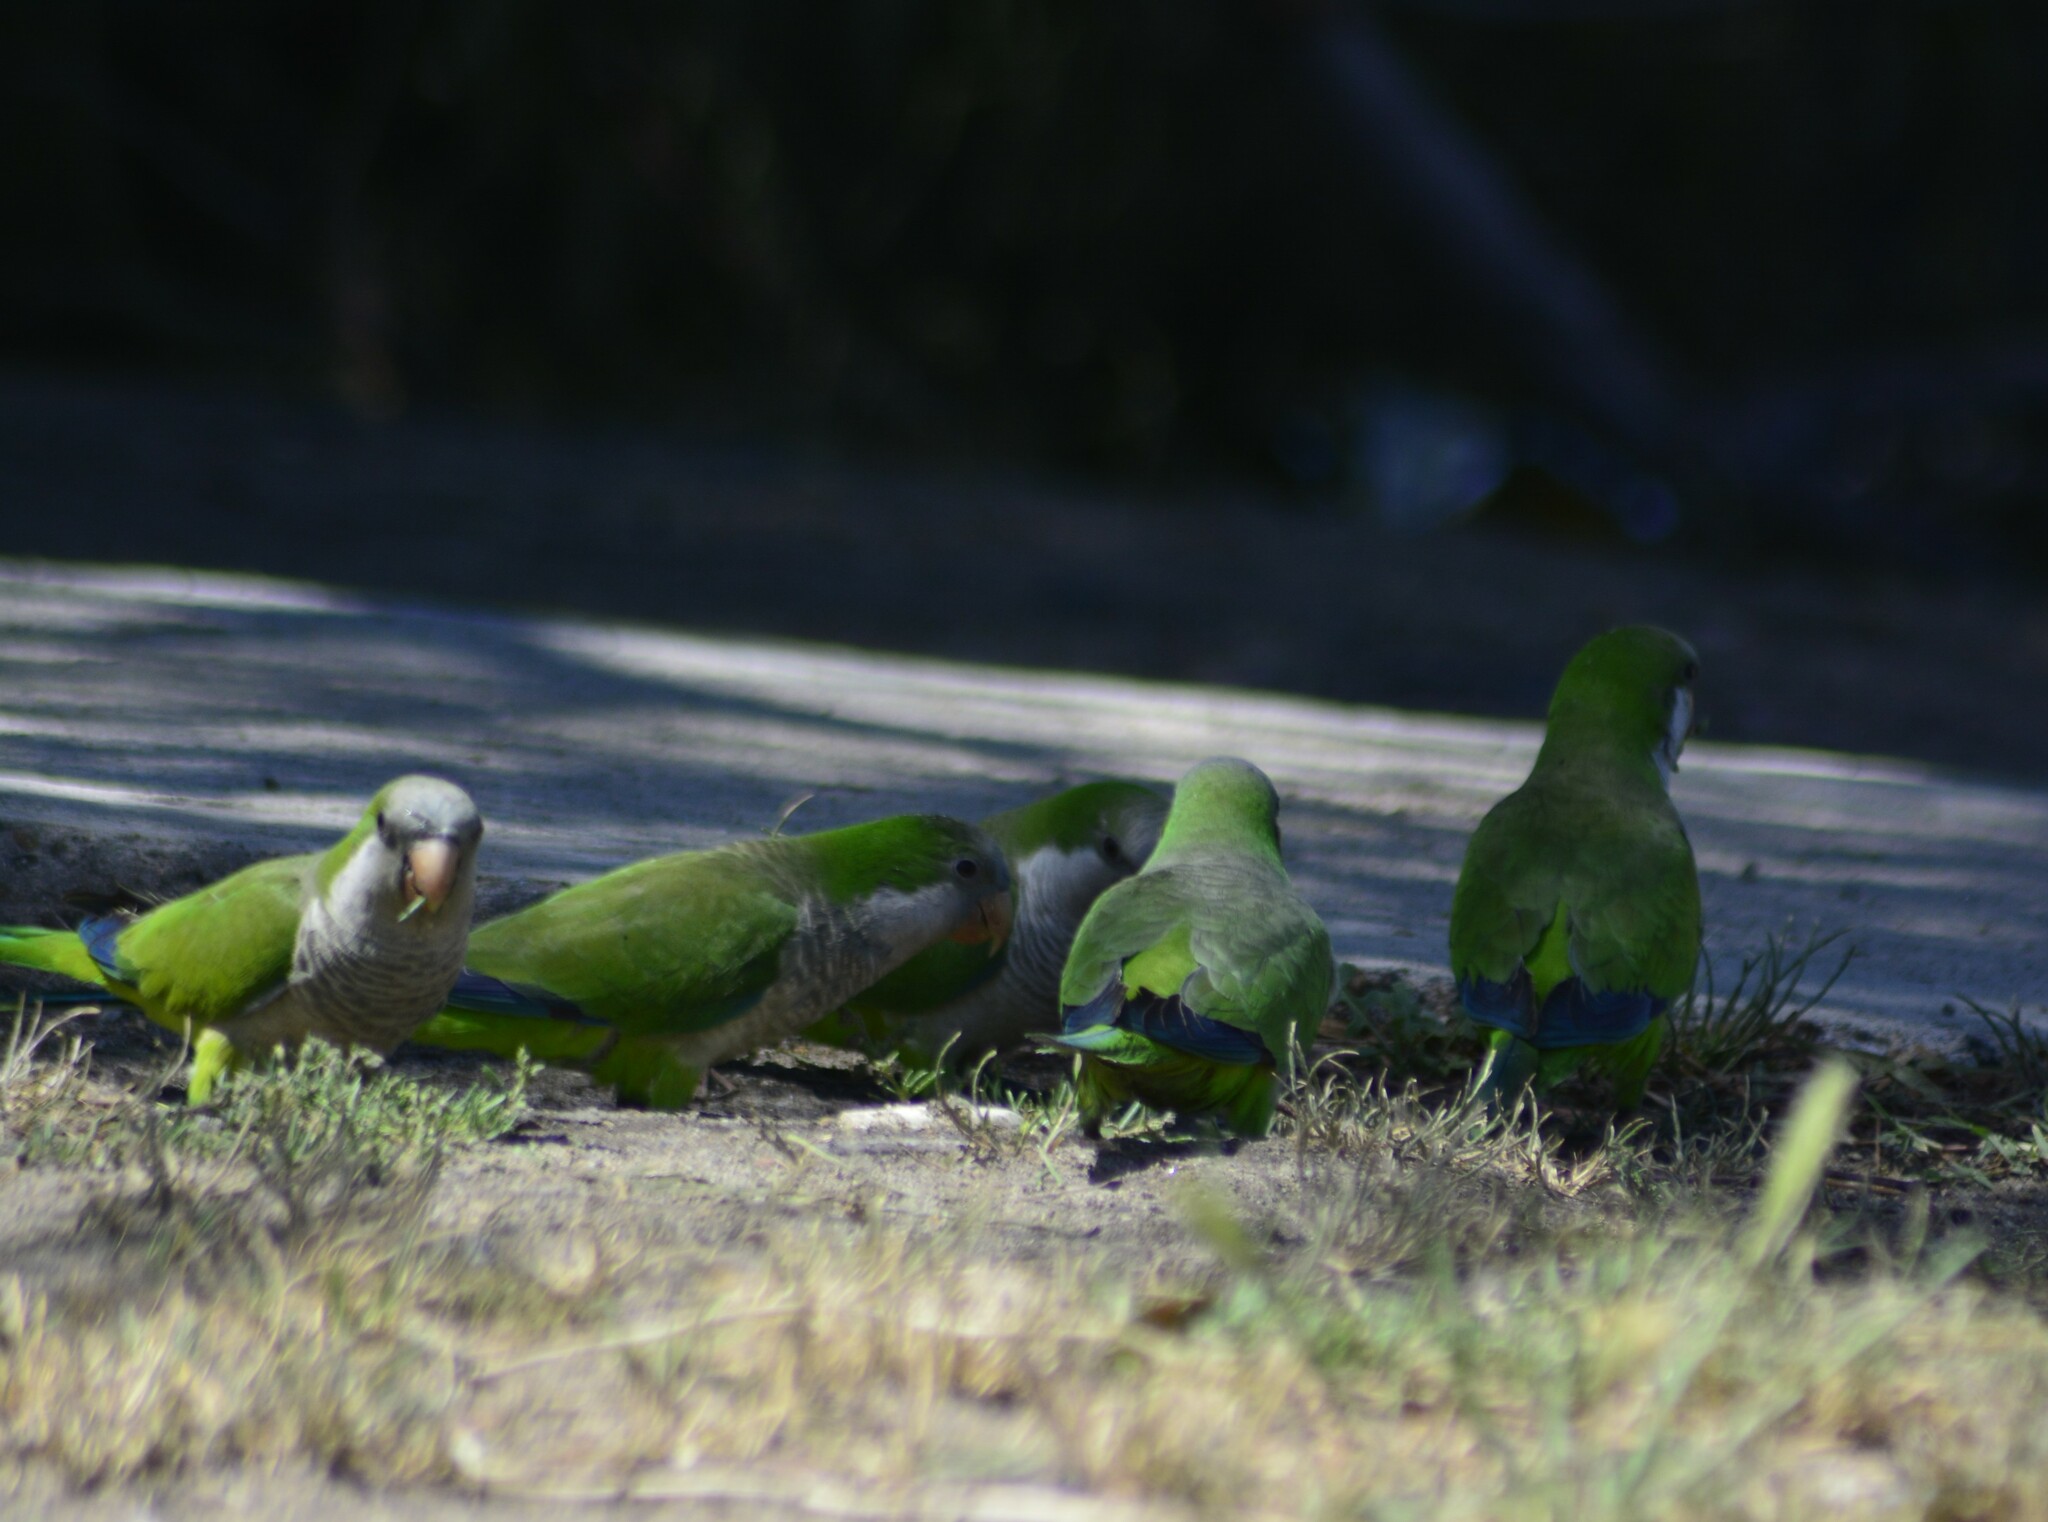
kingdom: Animalia
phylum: Chordata
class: Aves
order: Psittaciformes
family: Psittacidae
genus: Myiopsitta
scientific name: Myiopsitta monachus
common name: Monk parakeet
